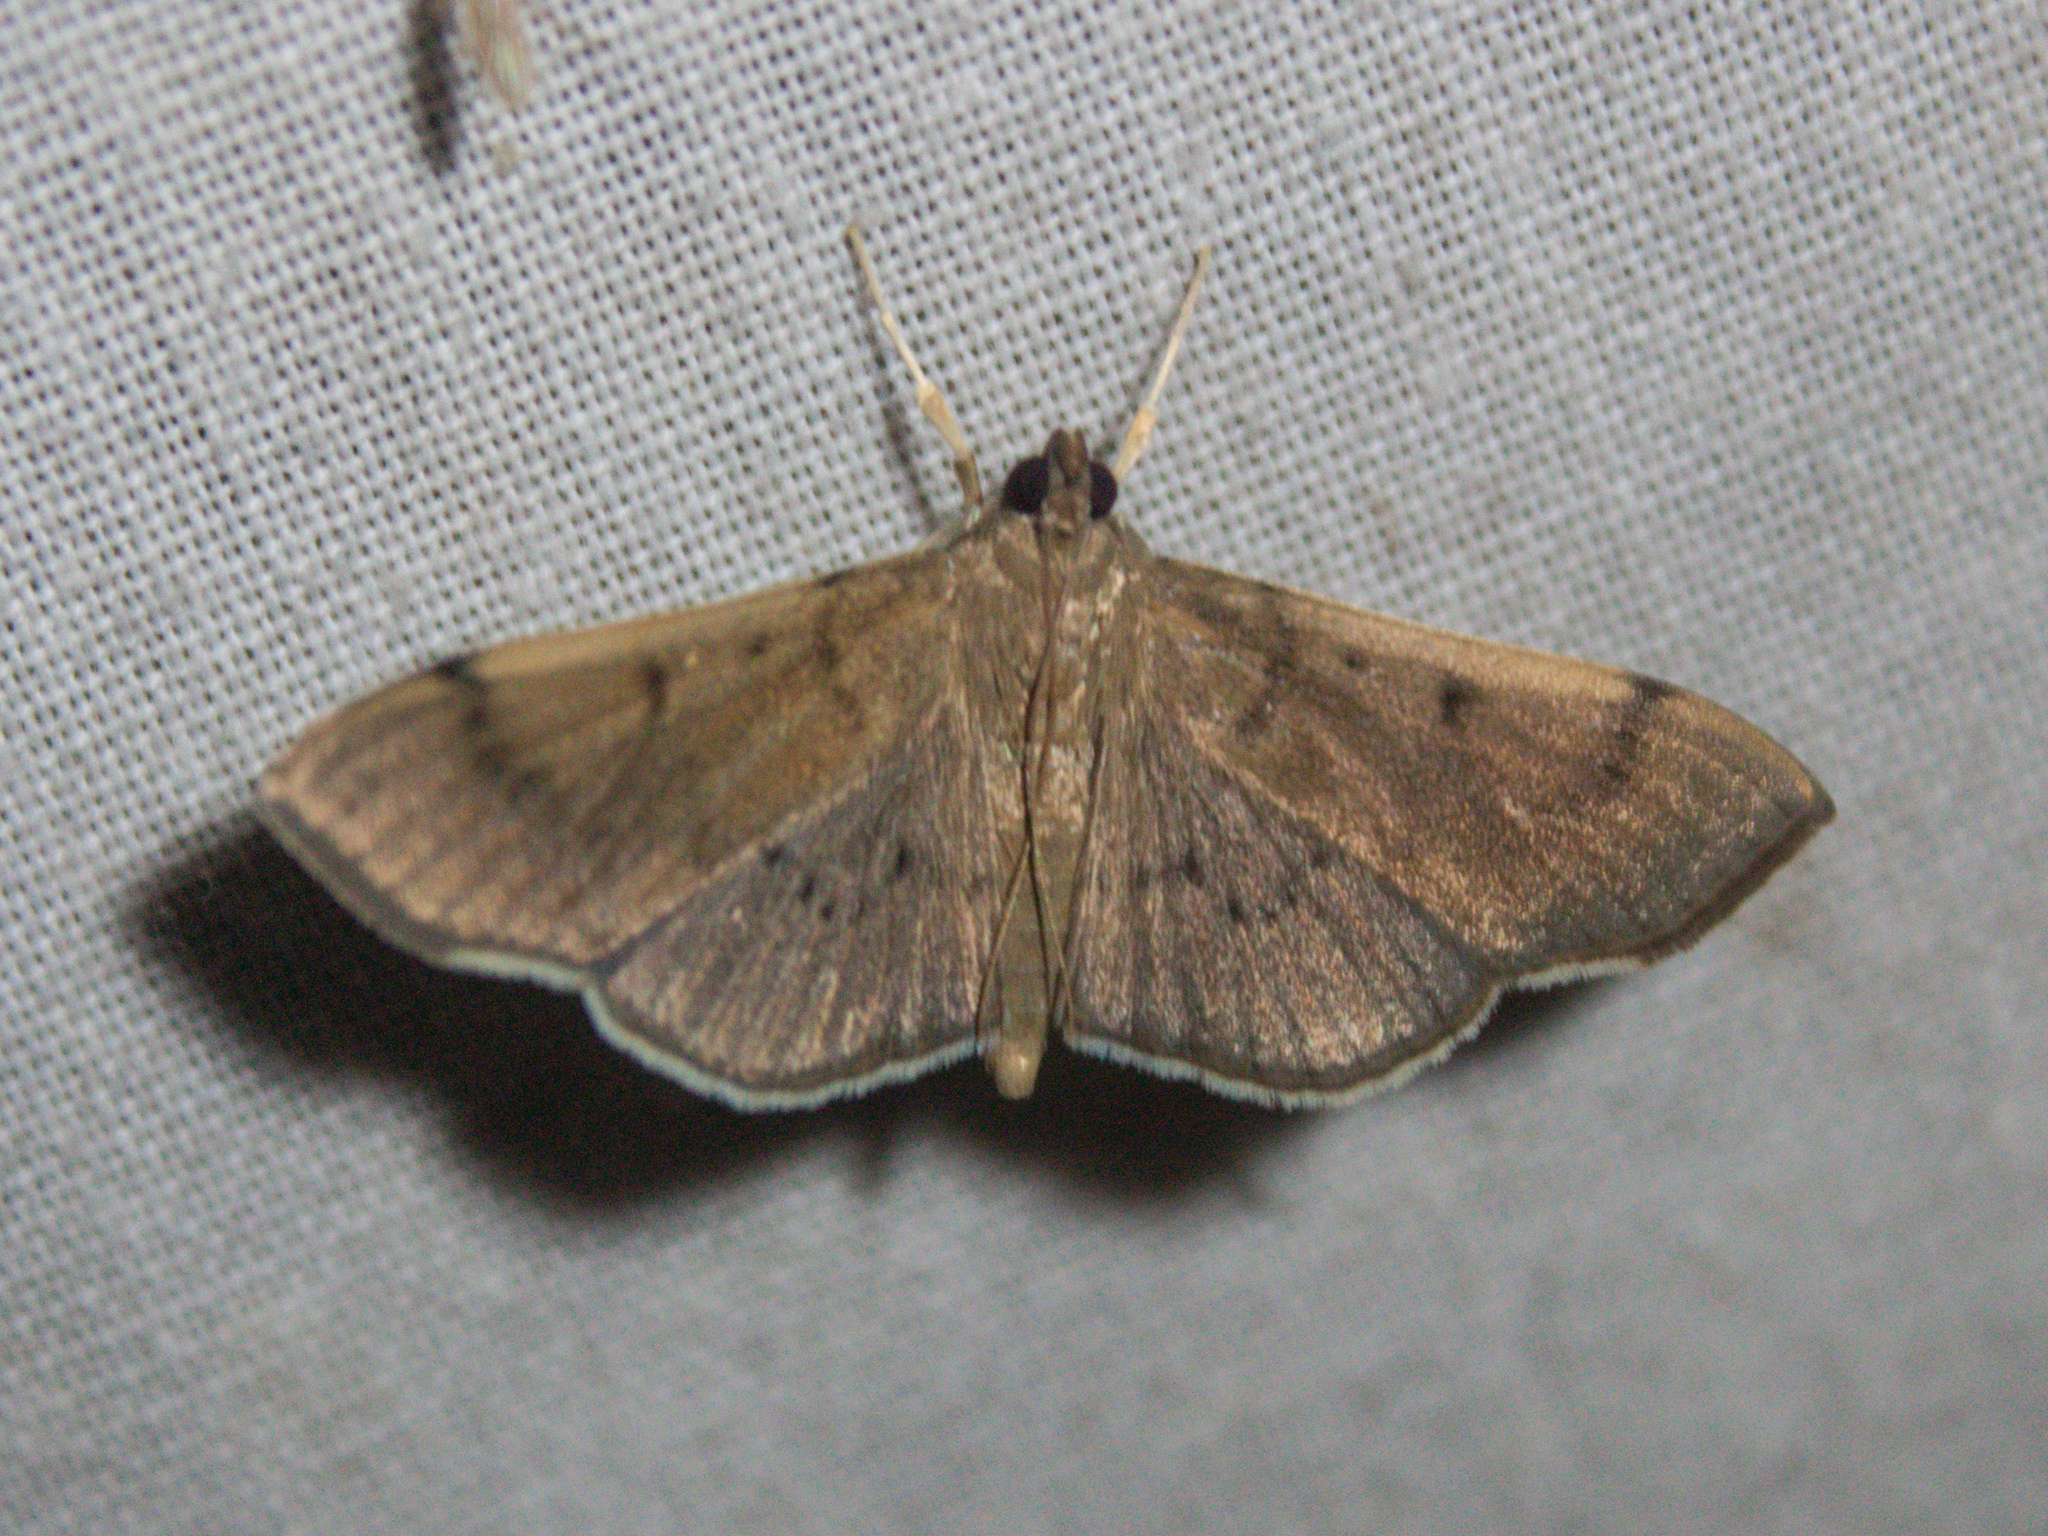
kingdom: Animalia
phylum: Arthropoda
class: Insecta
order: Lepidoptera
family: Crambidae
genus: Omiodes
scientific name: Omiodes
